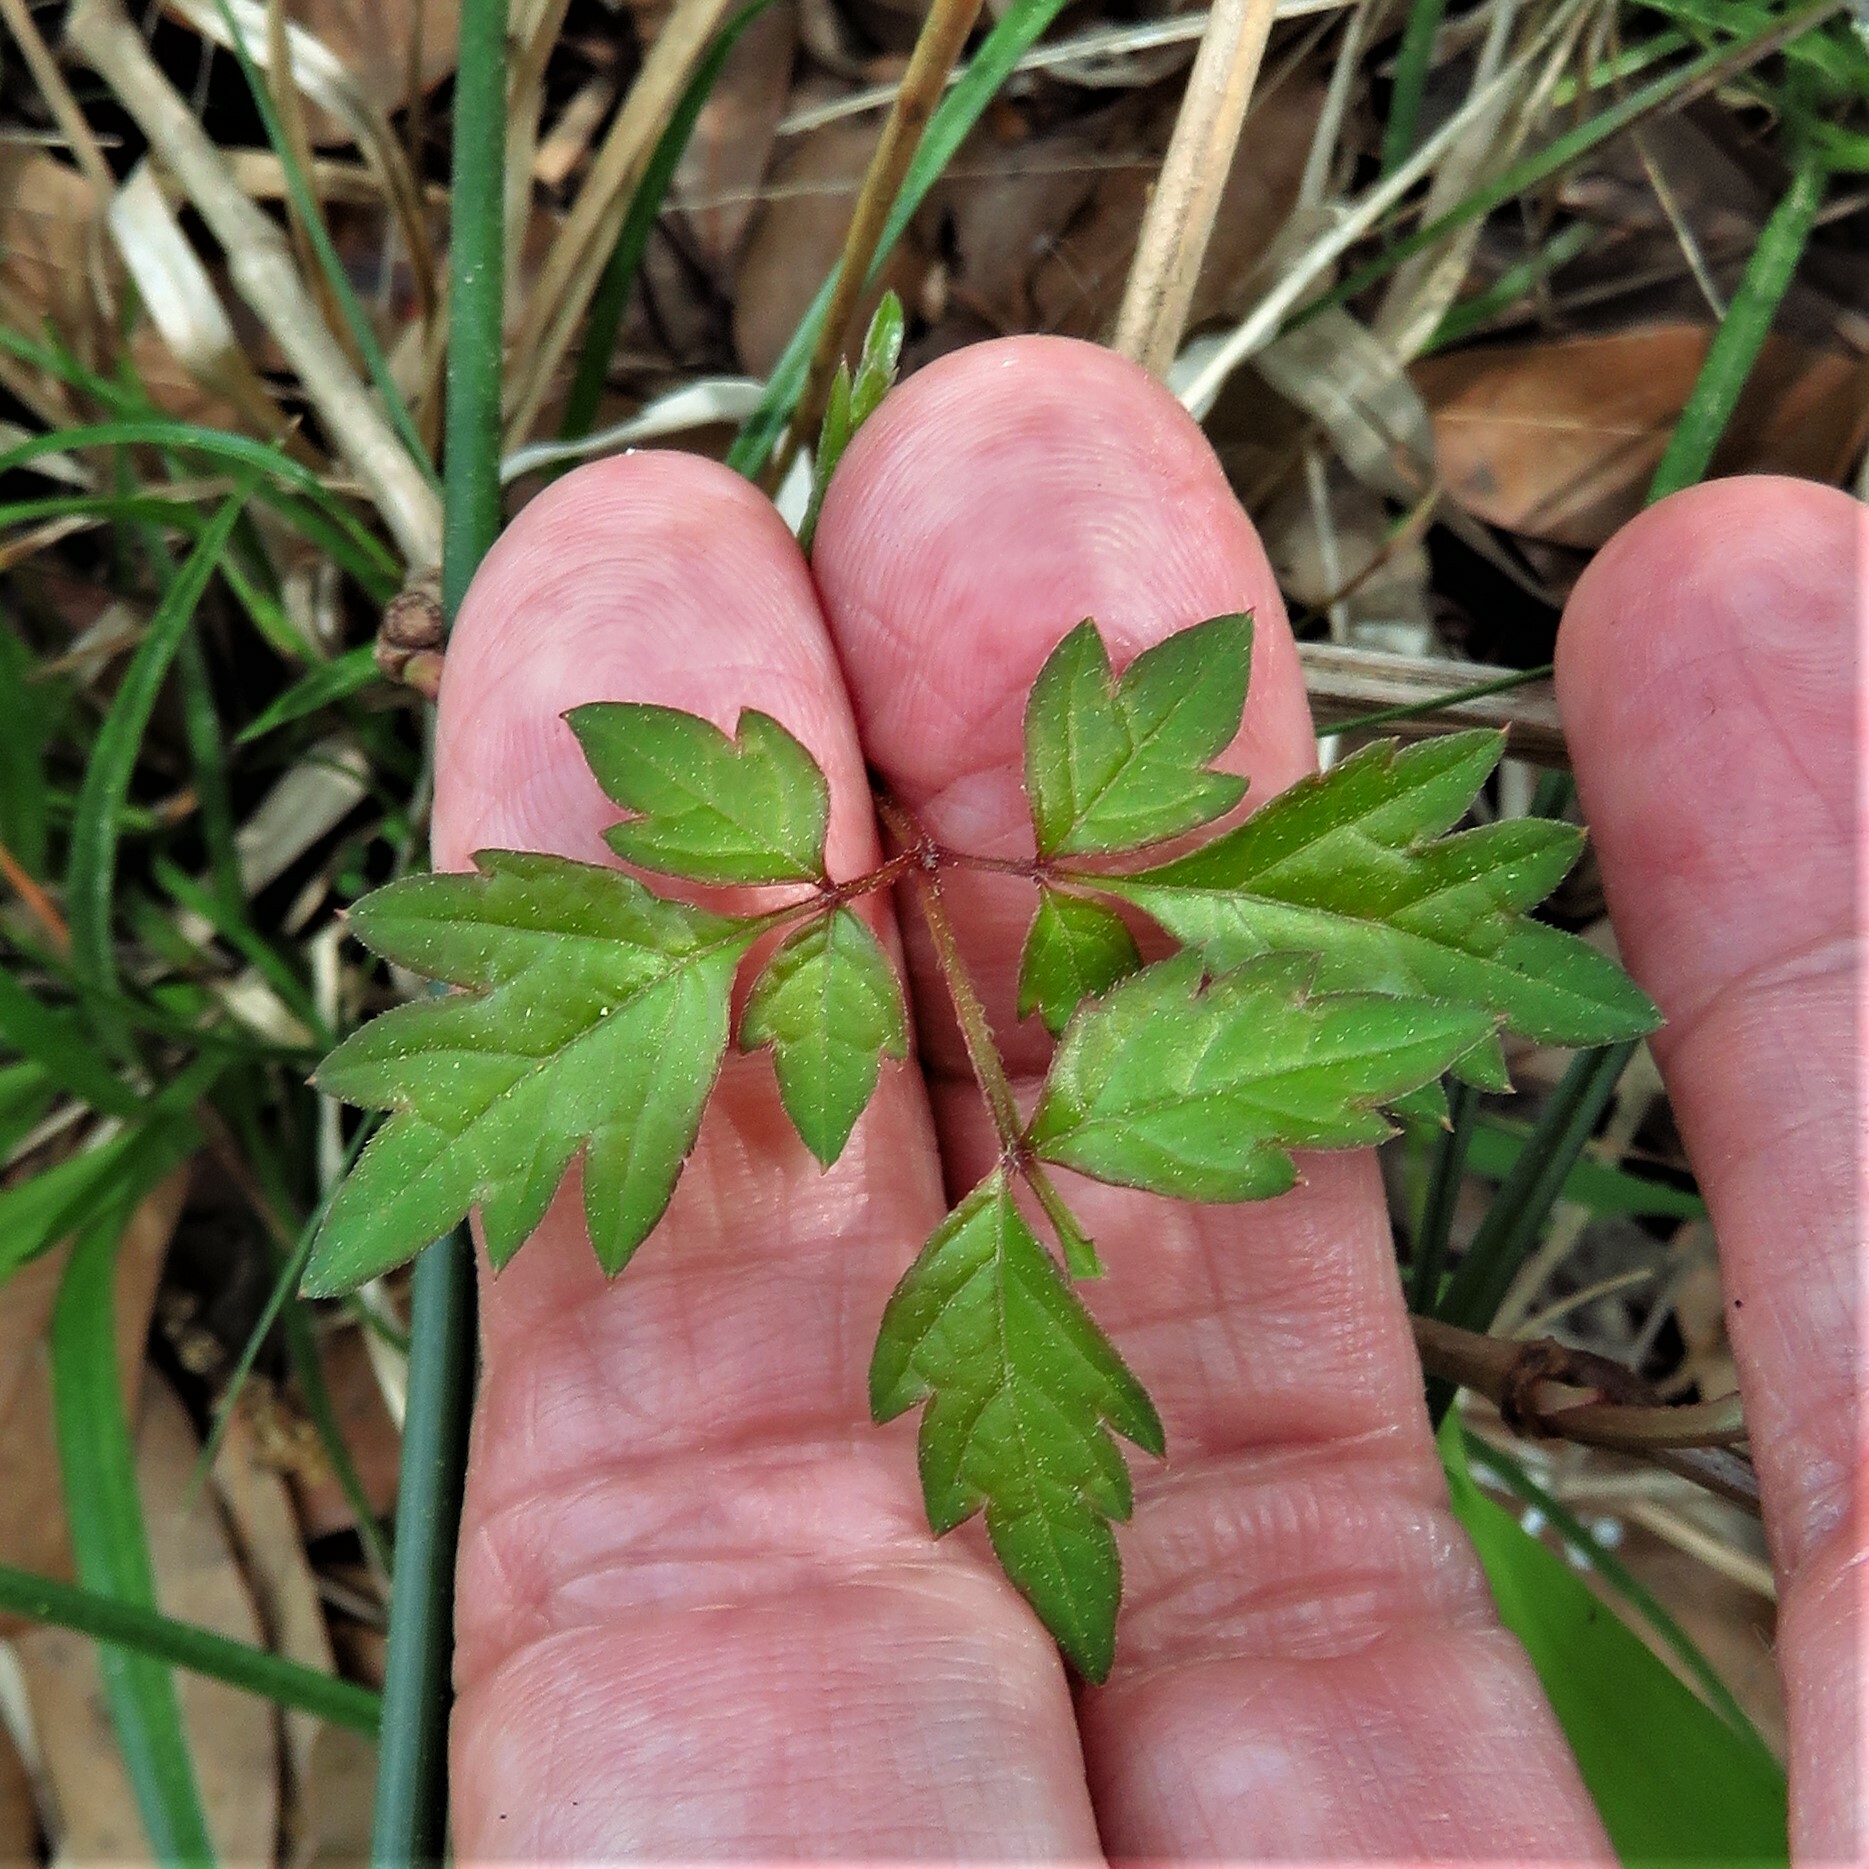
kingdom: Plantae
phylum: Tracheophyta
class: Magnoliopsida
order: Vitales
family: Vitaceae
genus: Nekemias
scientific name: Nekemias arborea
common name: Peppervine
